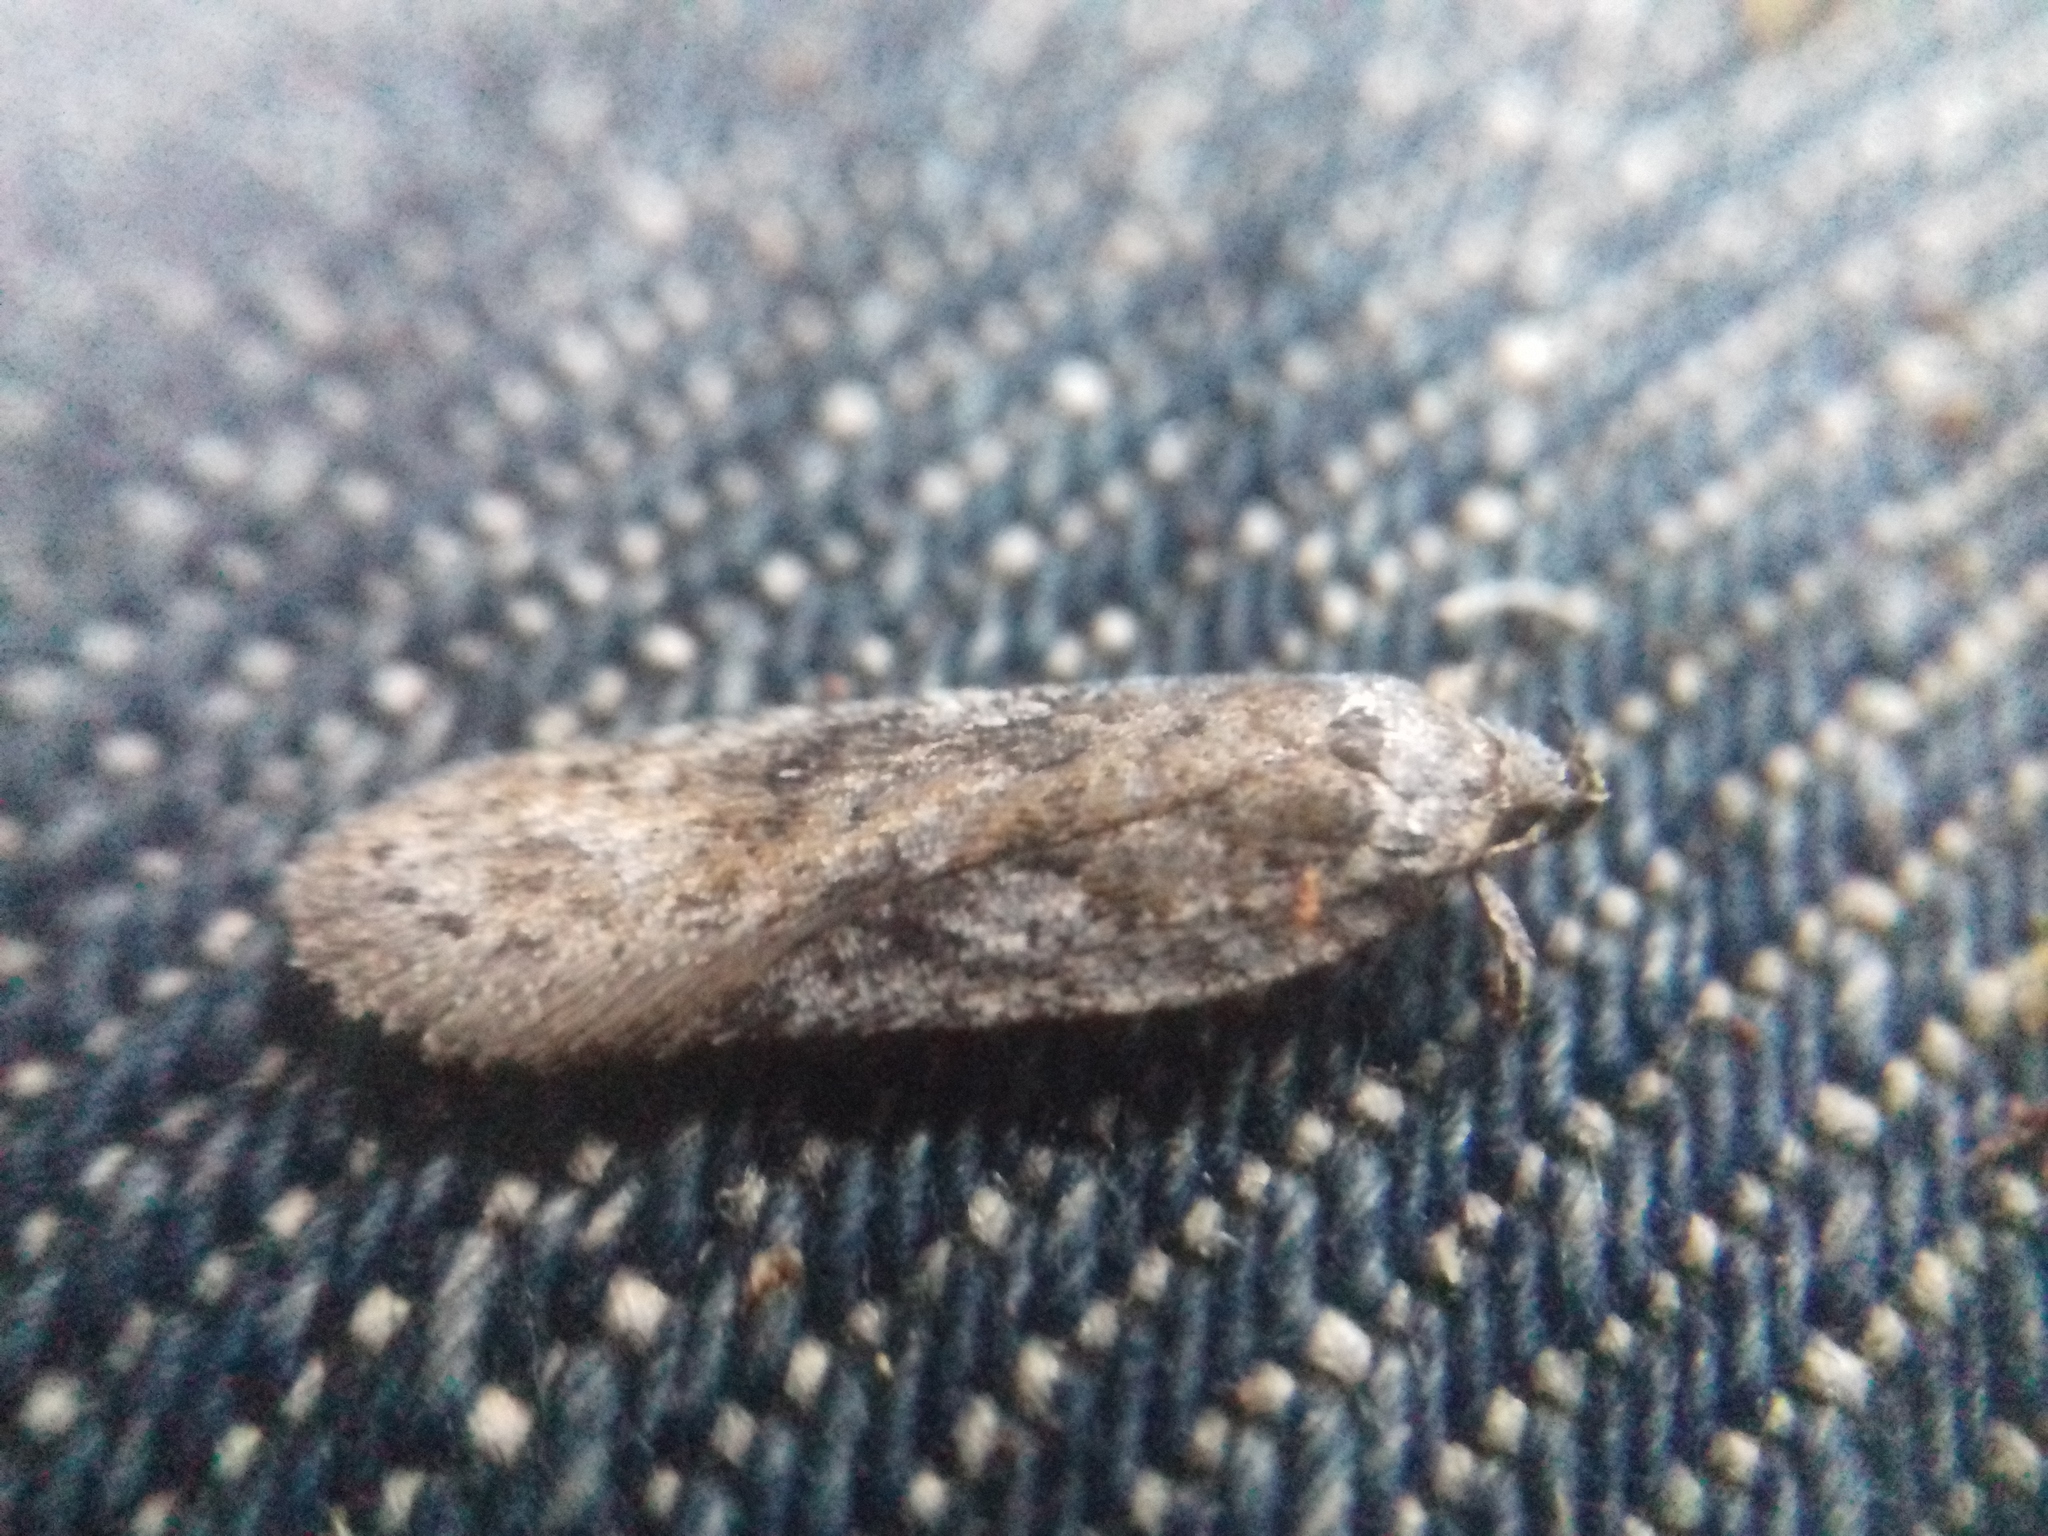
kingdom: Animalia
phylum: Arthropoda
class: Insecta
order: Lepidoptera
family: Depressariidae
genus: Exaeretia
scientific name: Exaeretia ciniflonella
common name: Scotch flat-body
